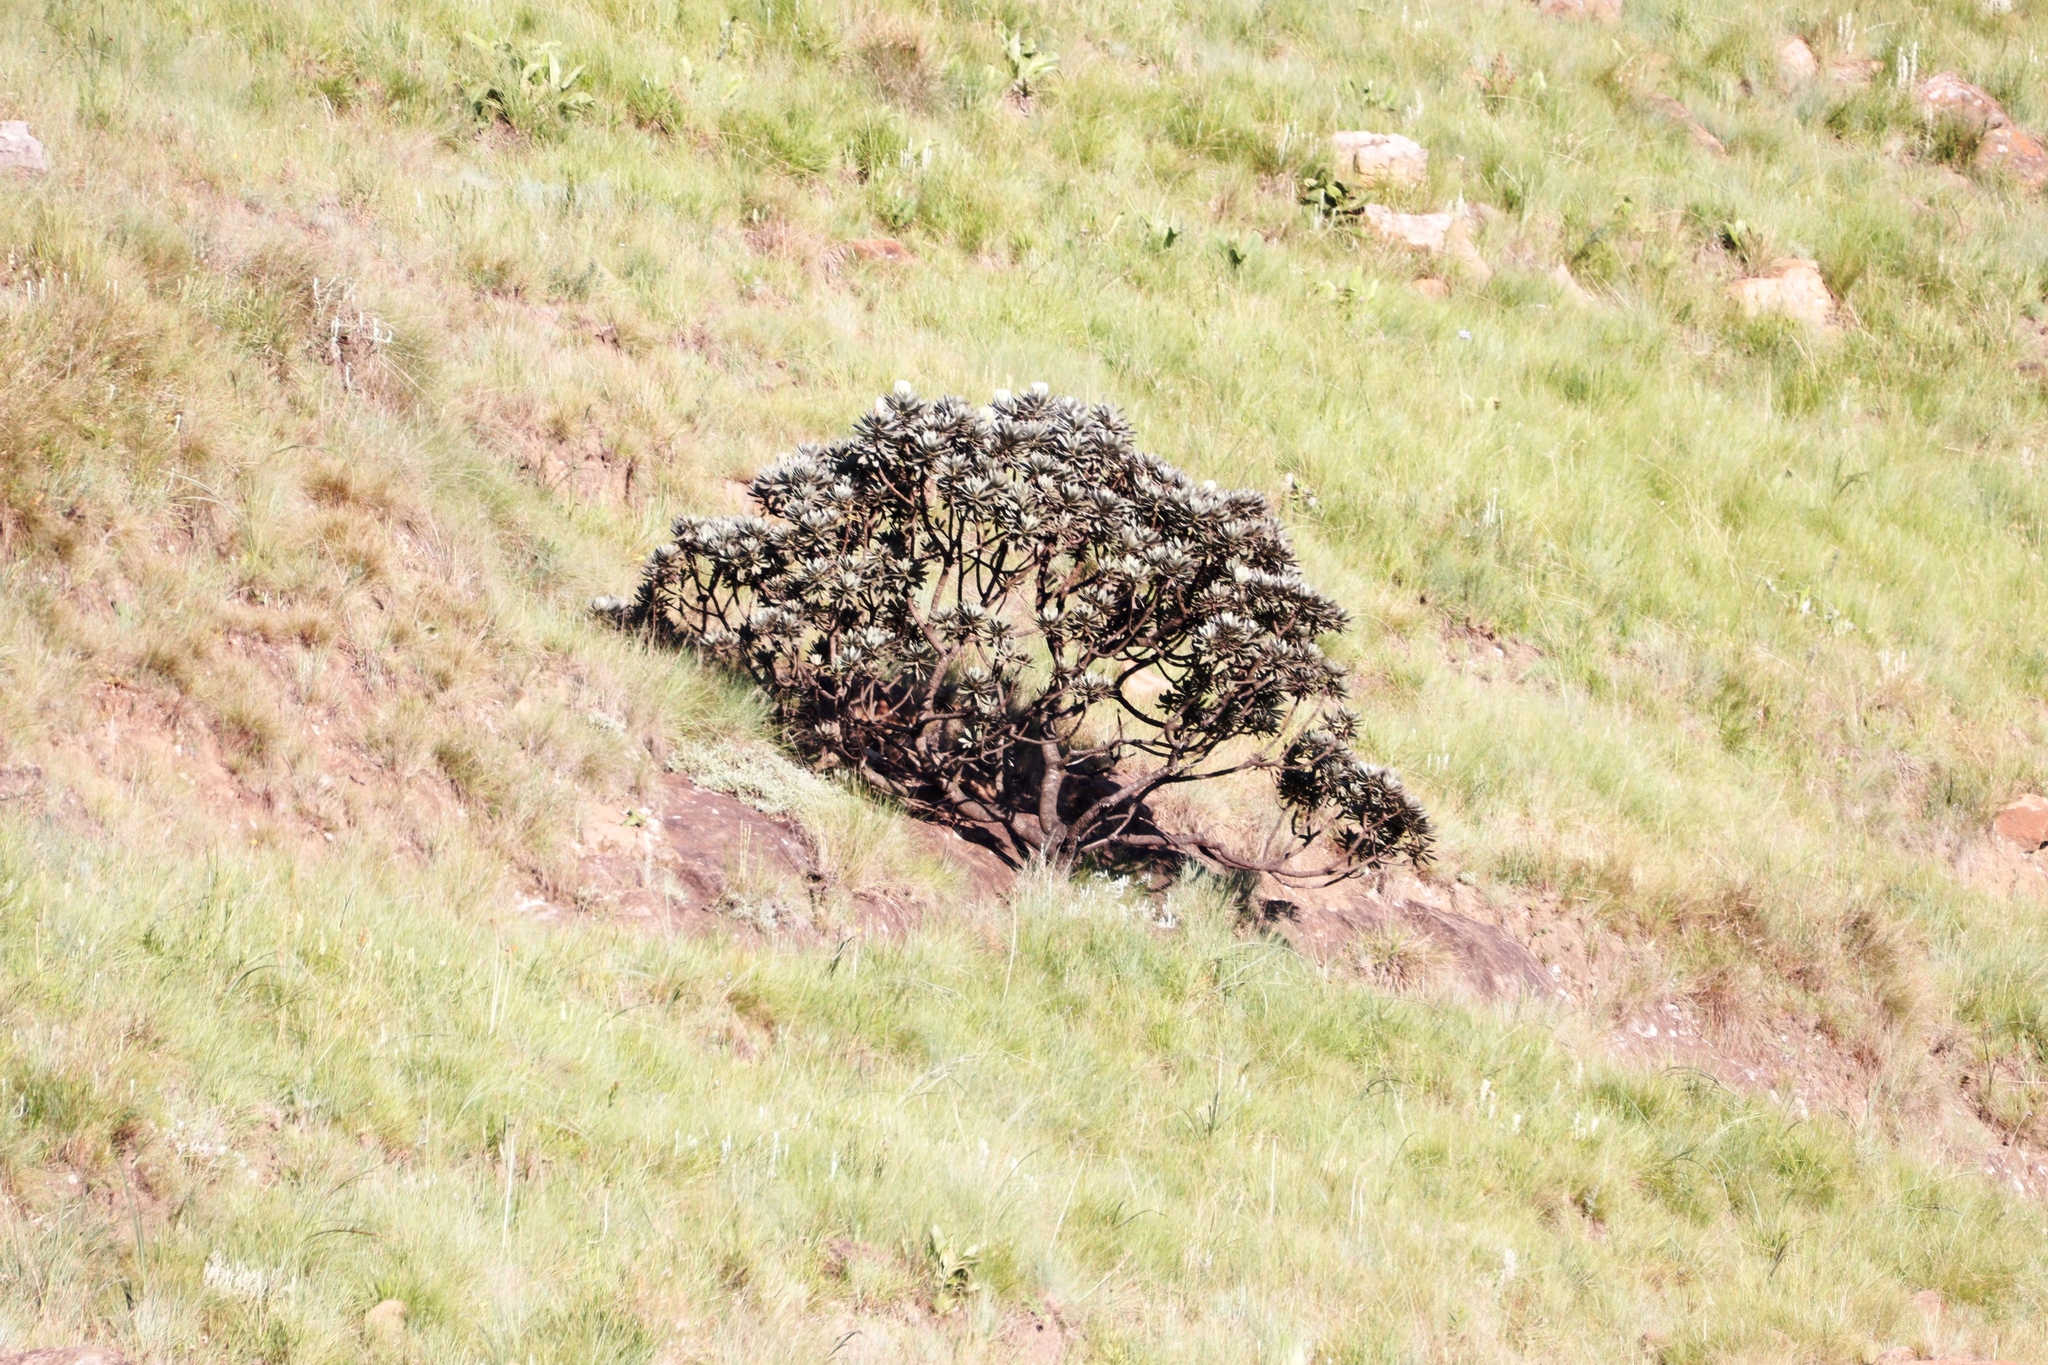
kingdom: Plantae
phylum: Tracheophyta
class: Magnoliopsida
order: Proteales
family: Proteaceae
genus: Protea
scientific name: Protea roupelliae
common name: Silver sugarbush
